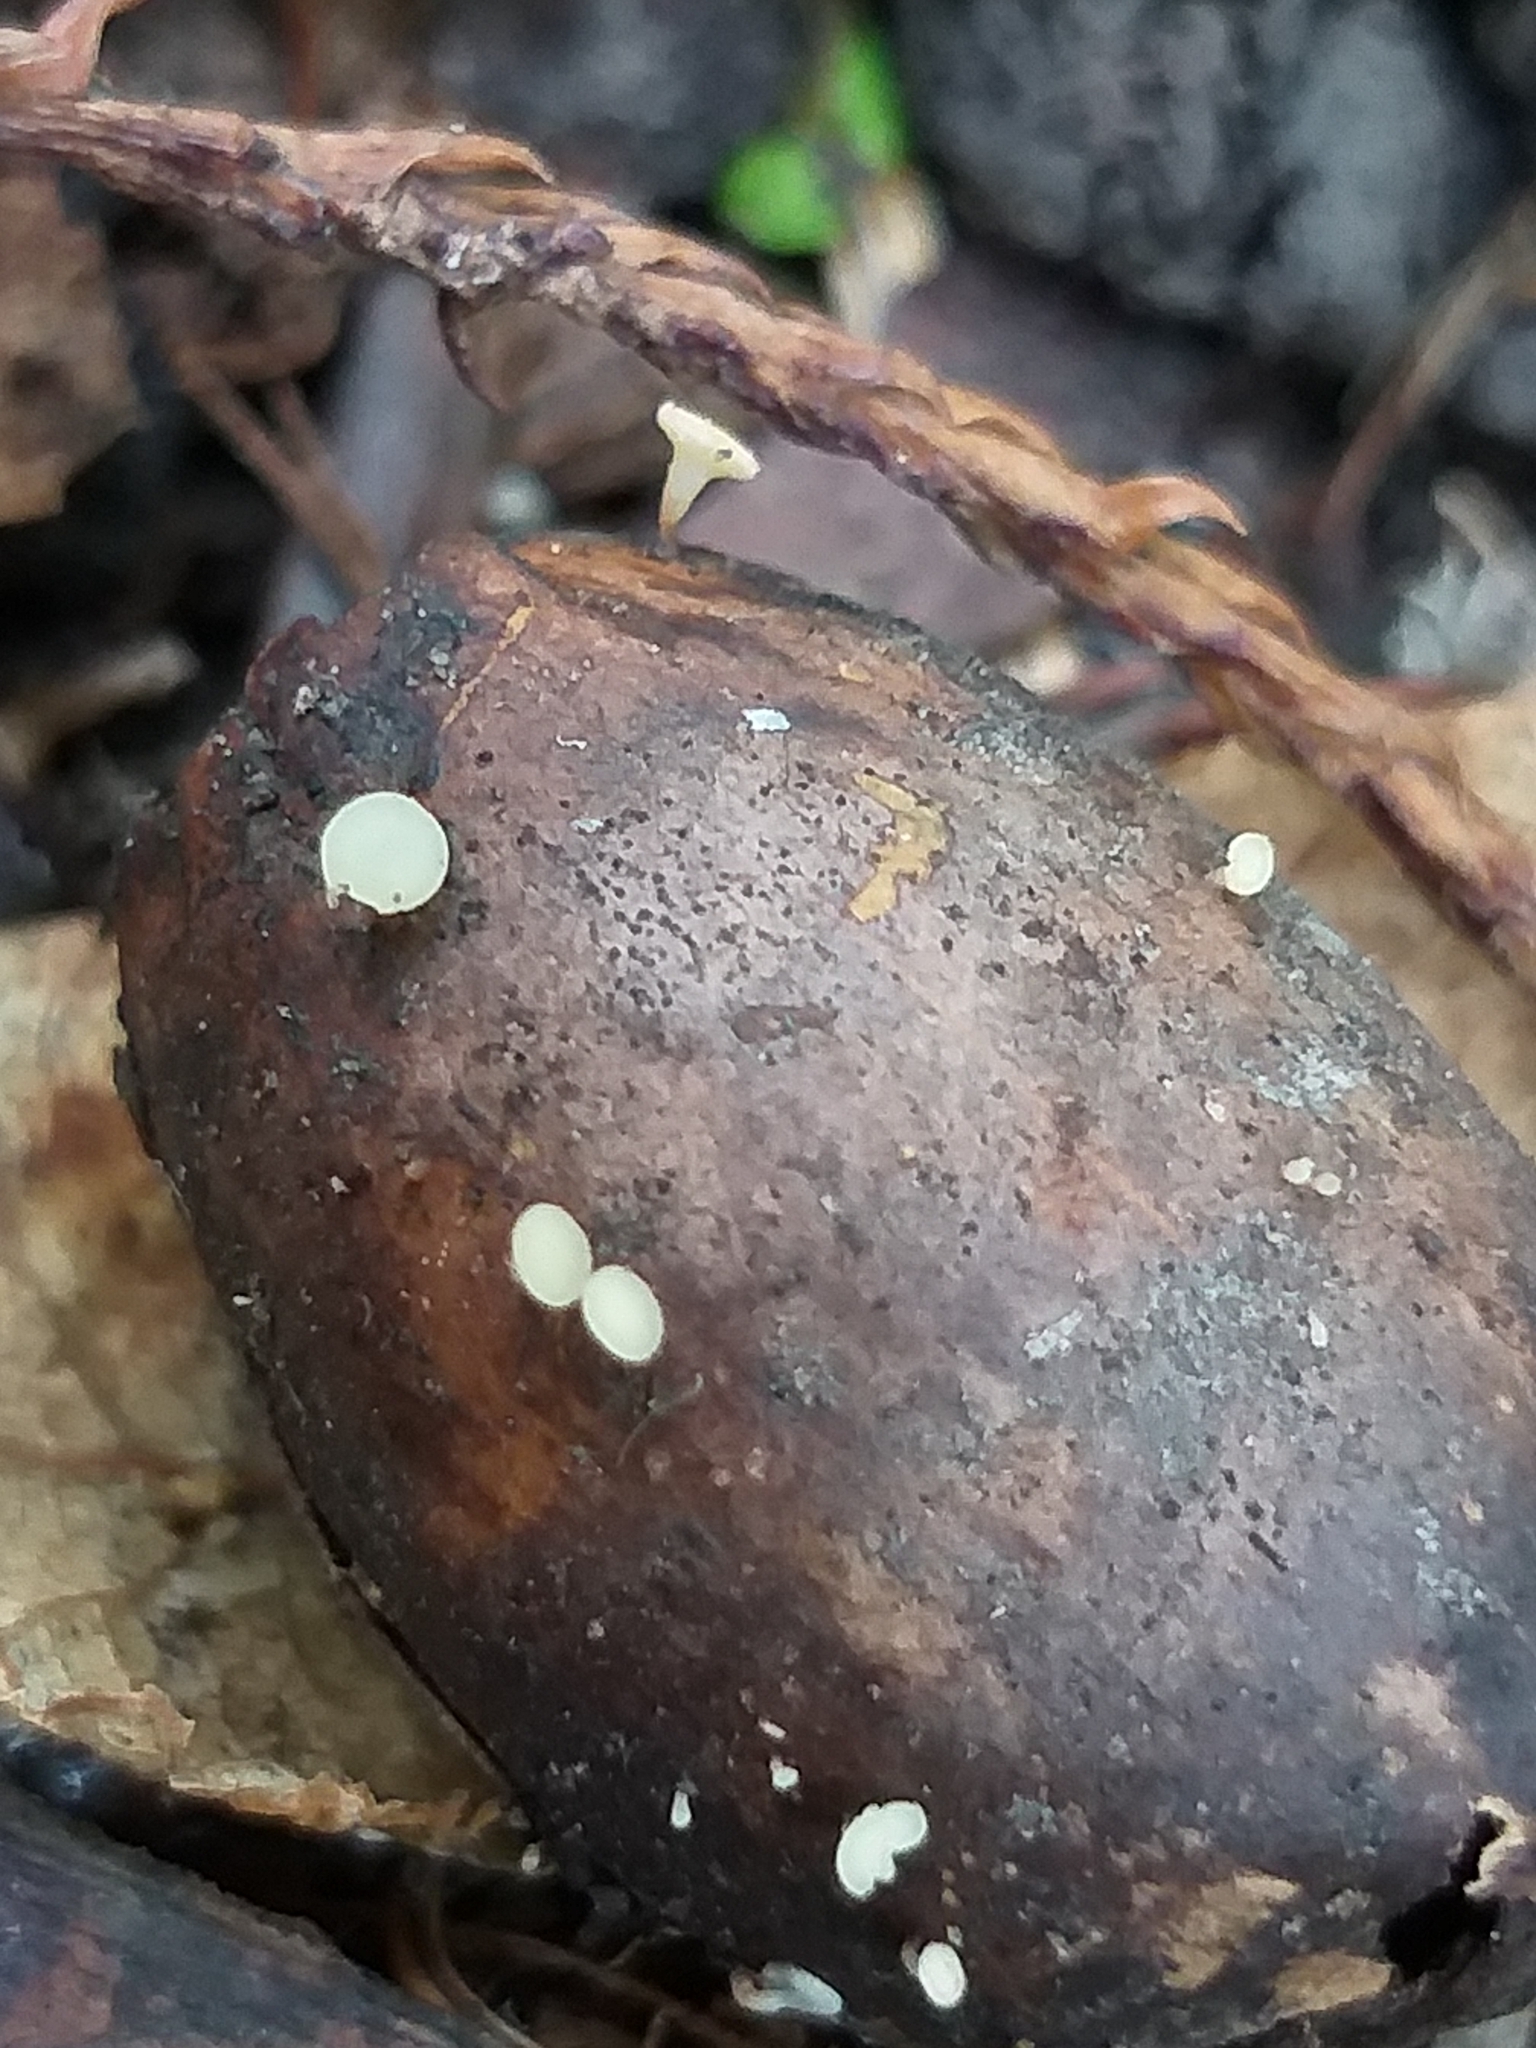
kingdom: Fungi
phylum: Ascomycota
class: Leotiomycetes
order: Helotiales
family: Helotiaceae
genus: Hymenoscyphus
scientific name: Hymenoscyphus fructigenus
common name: Nut disco
